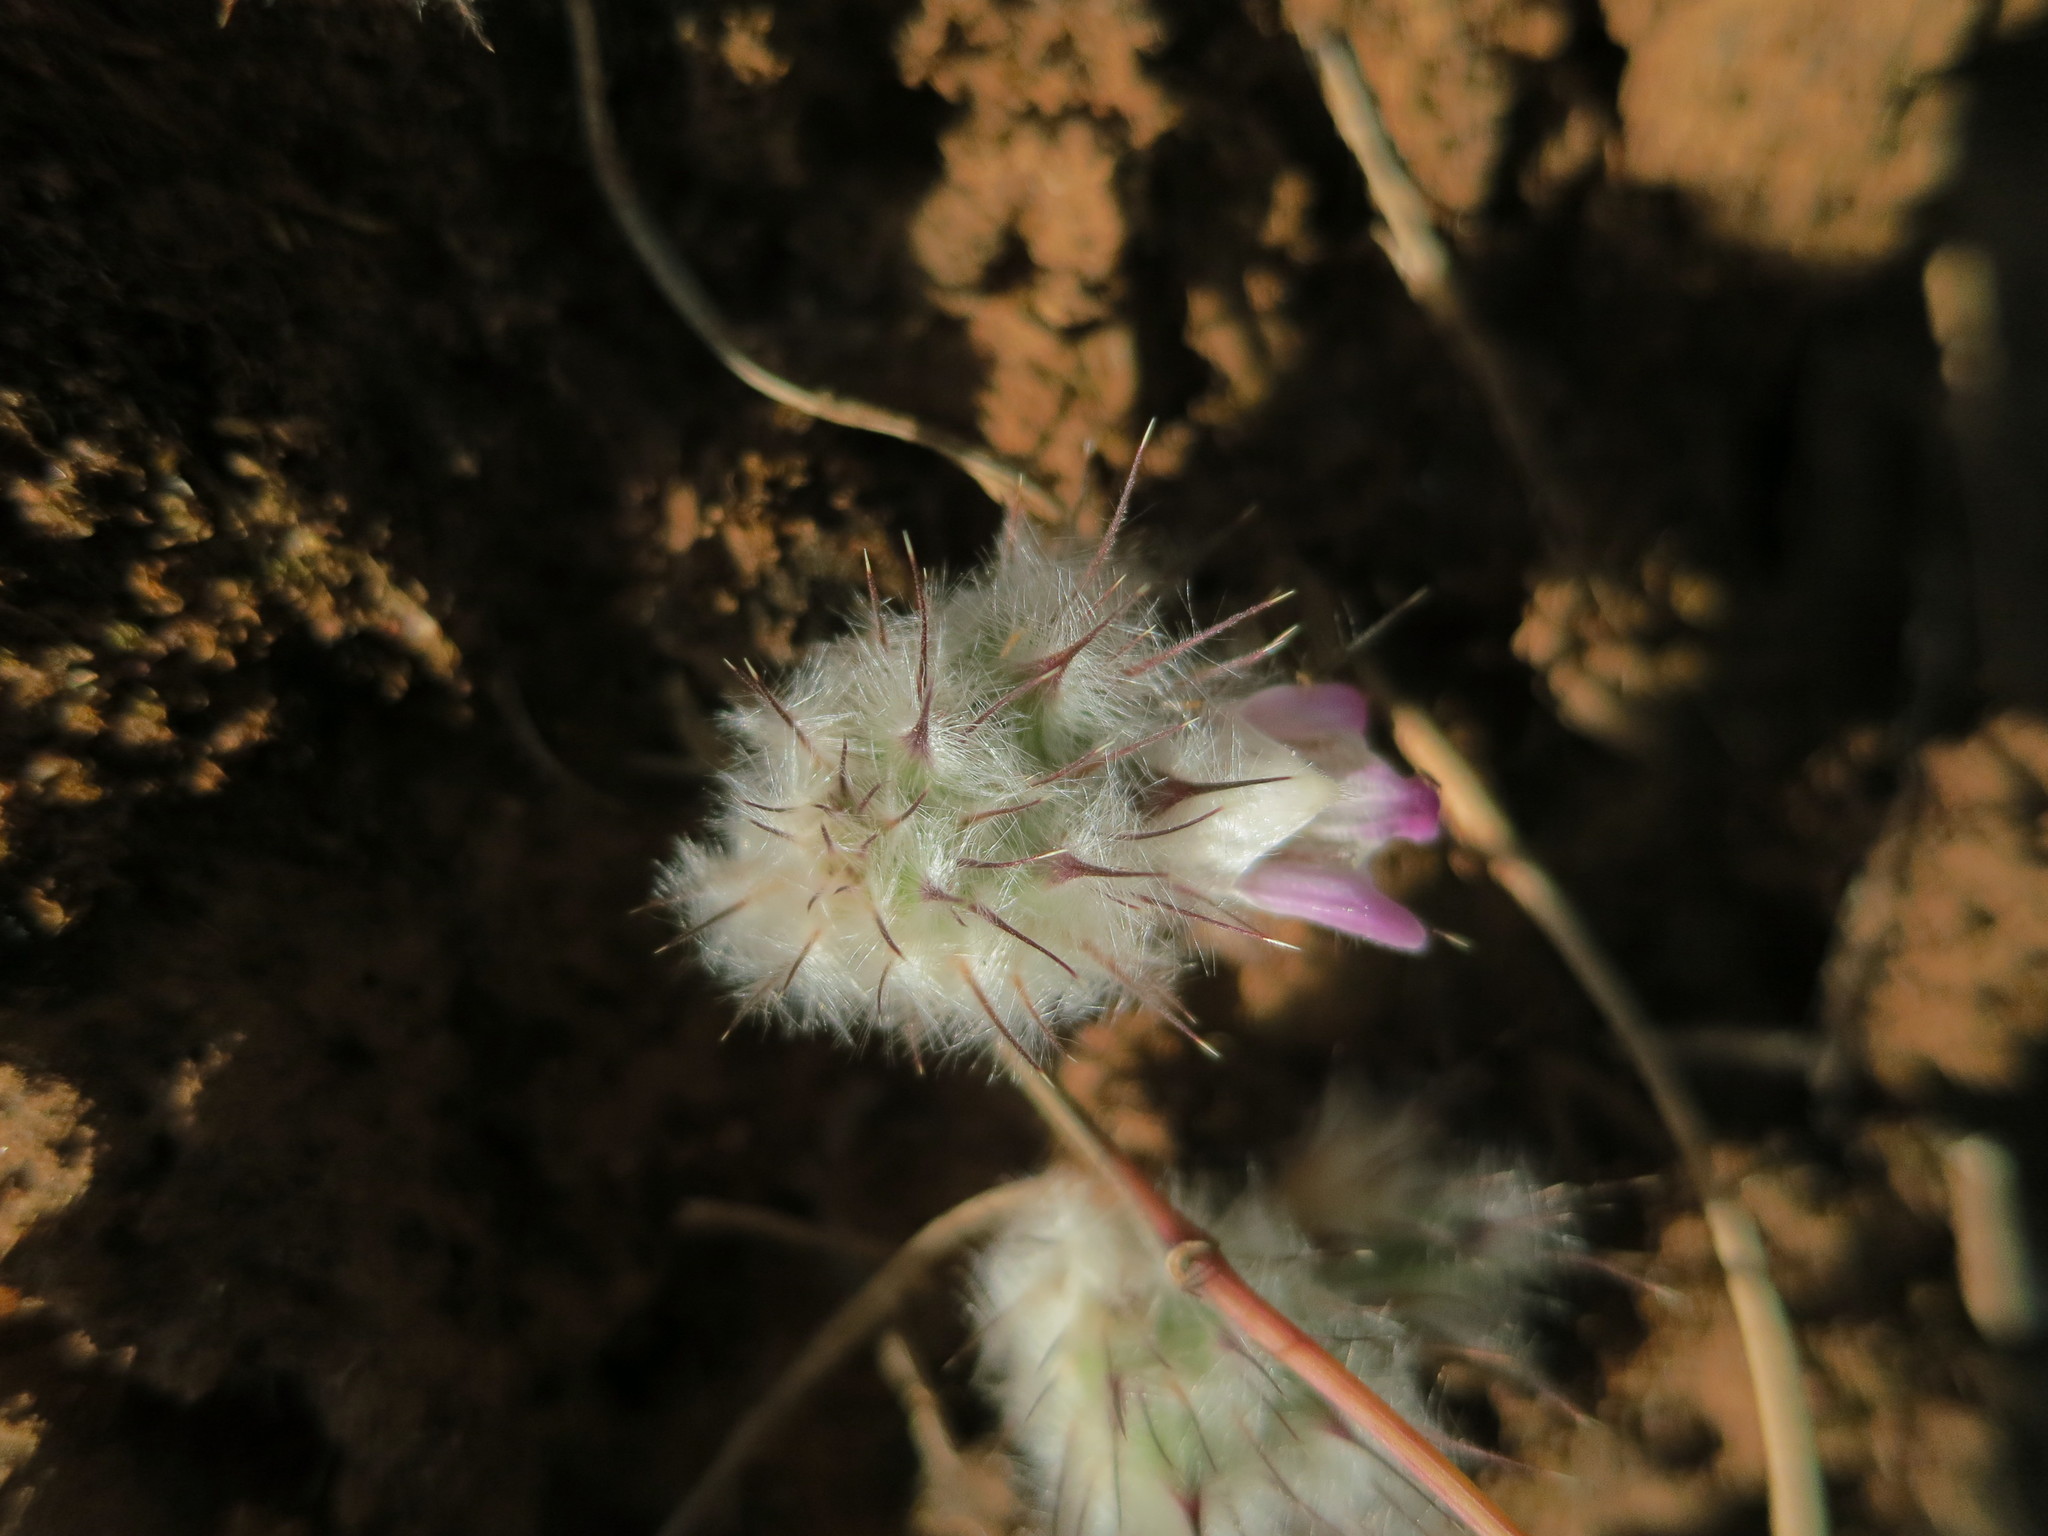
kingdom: Plantae
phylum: Tracheophyta
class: Magnoliopsida
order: Lamiales
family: Acanthaceae
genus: Lepidagathis
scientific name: Lepidagathis lanatoglabra
